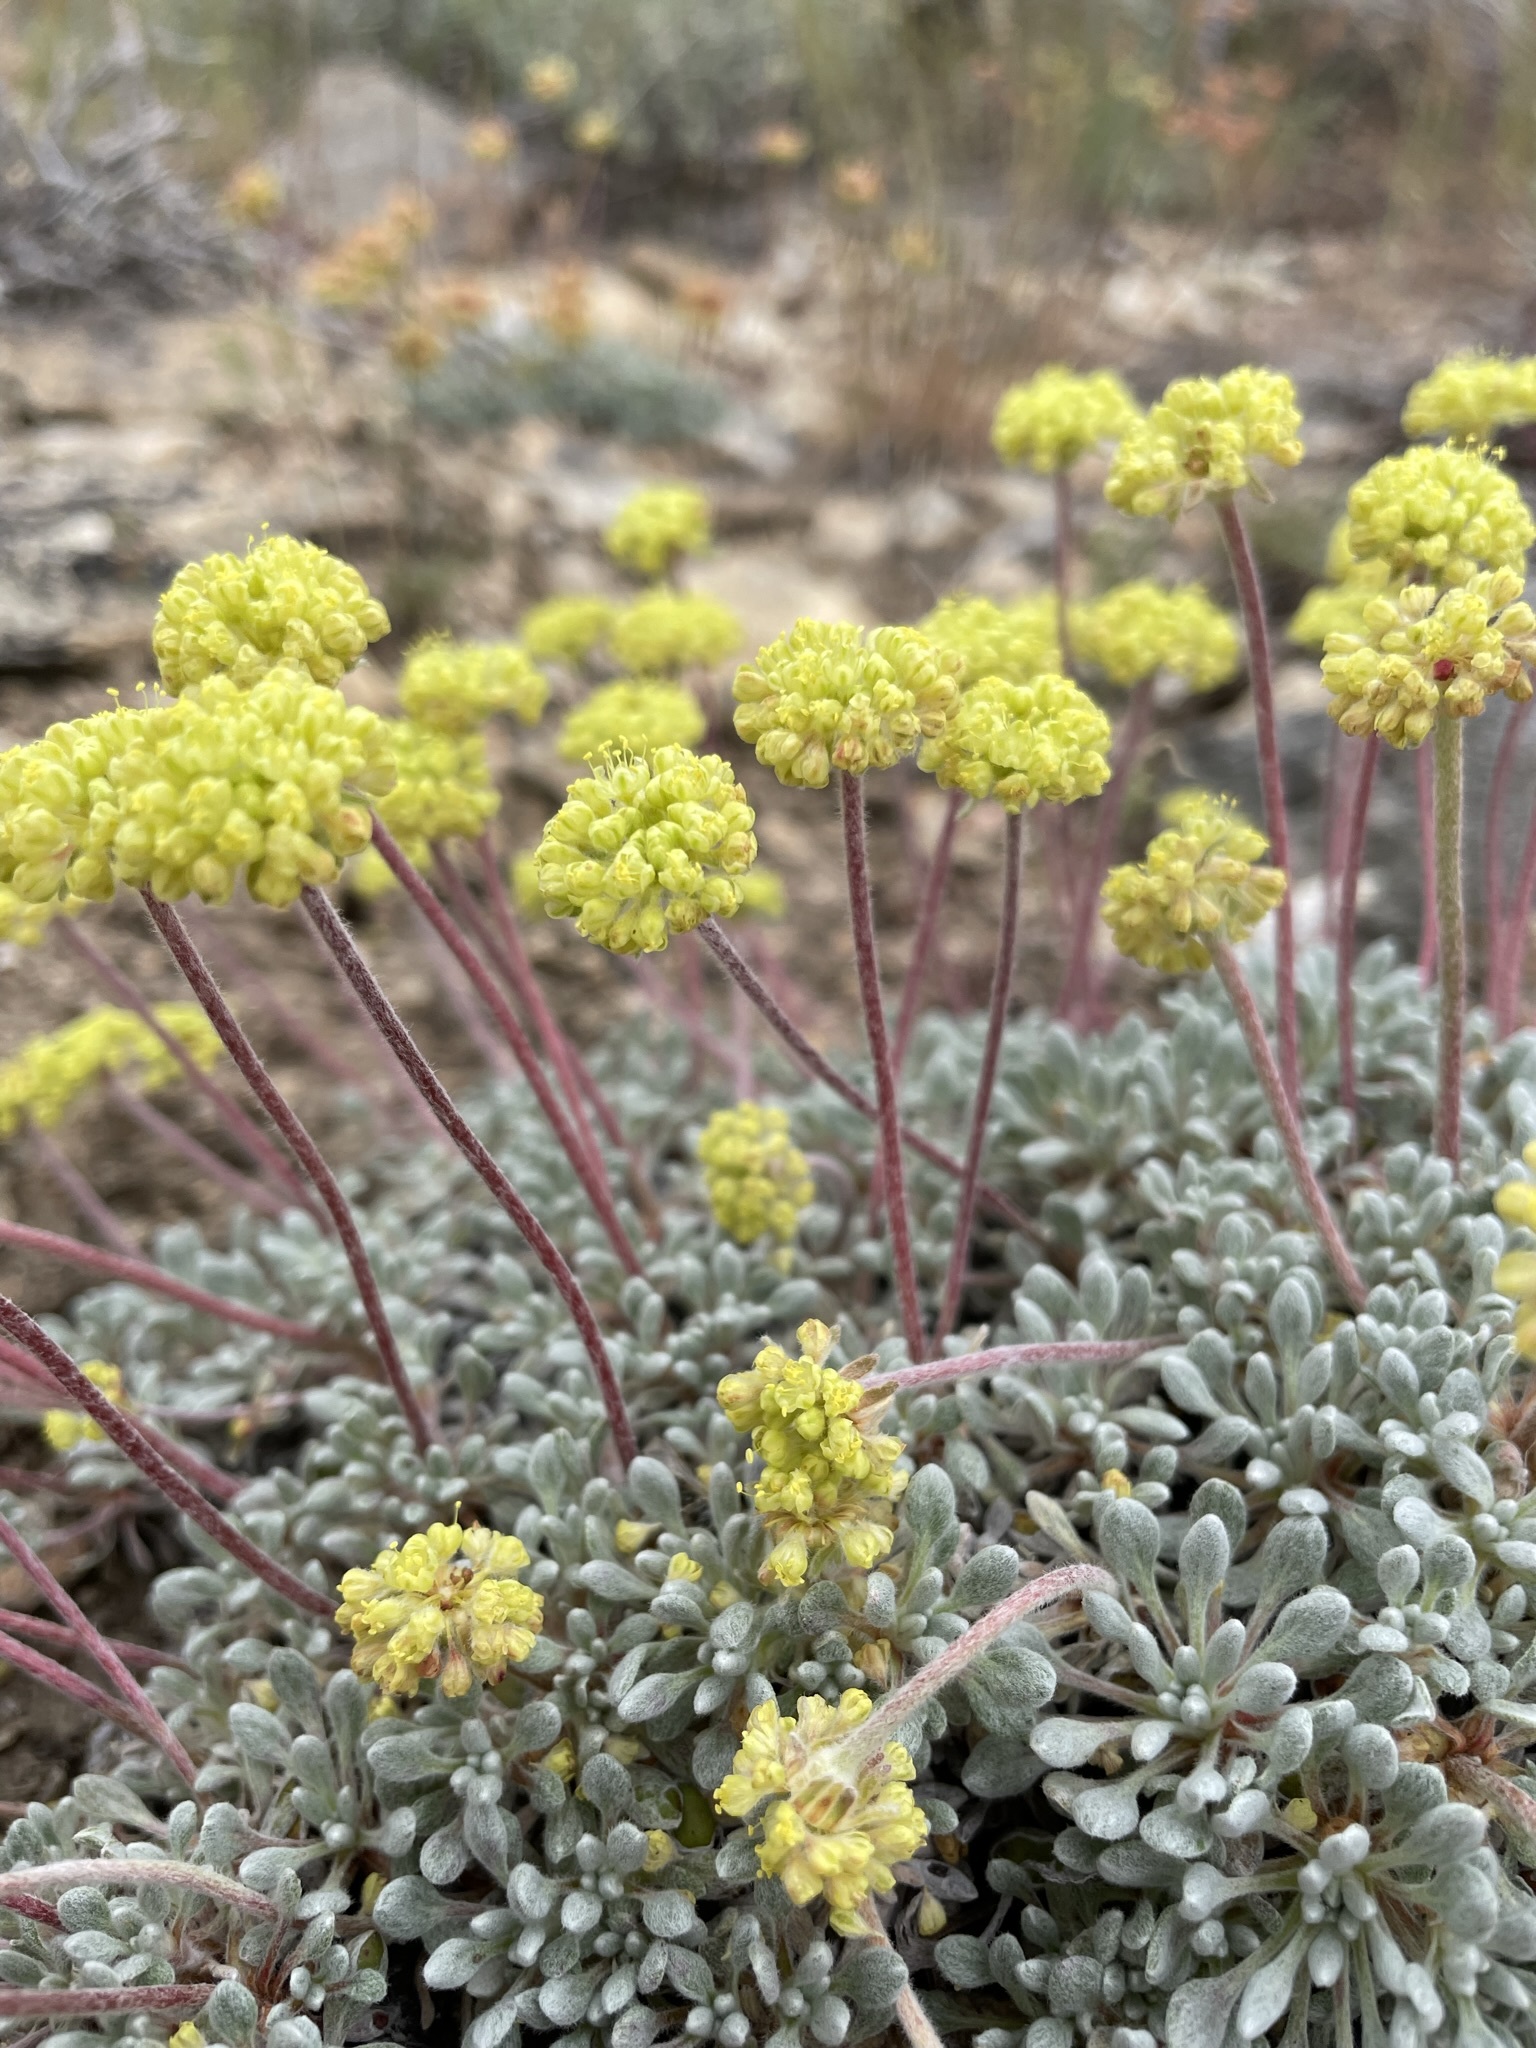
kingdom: Plantae
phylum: Tracheophyta
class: Magnoliopsida
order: Caryophyllales
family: Polygonaceae
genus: Eriogonum
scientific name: Eriogonum caespitosum
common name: Matted wild buckwheat
